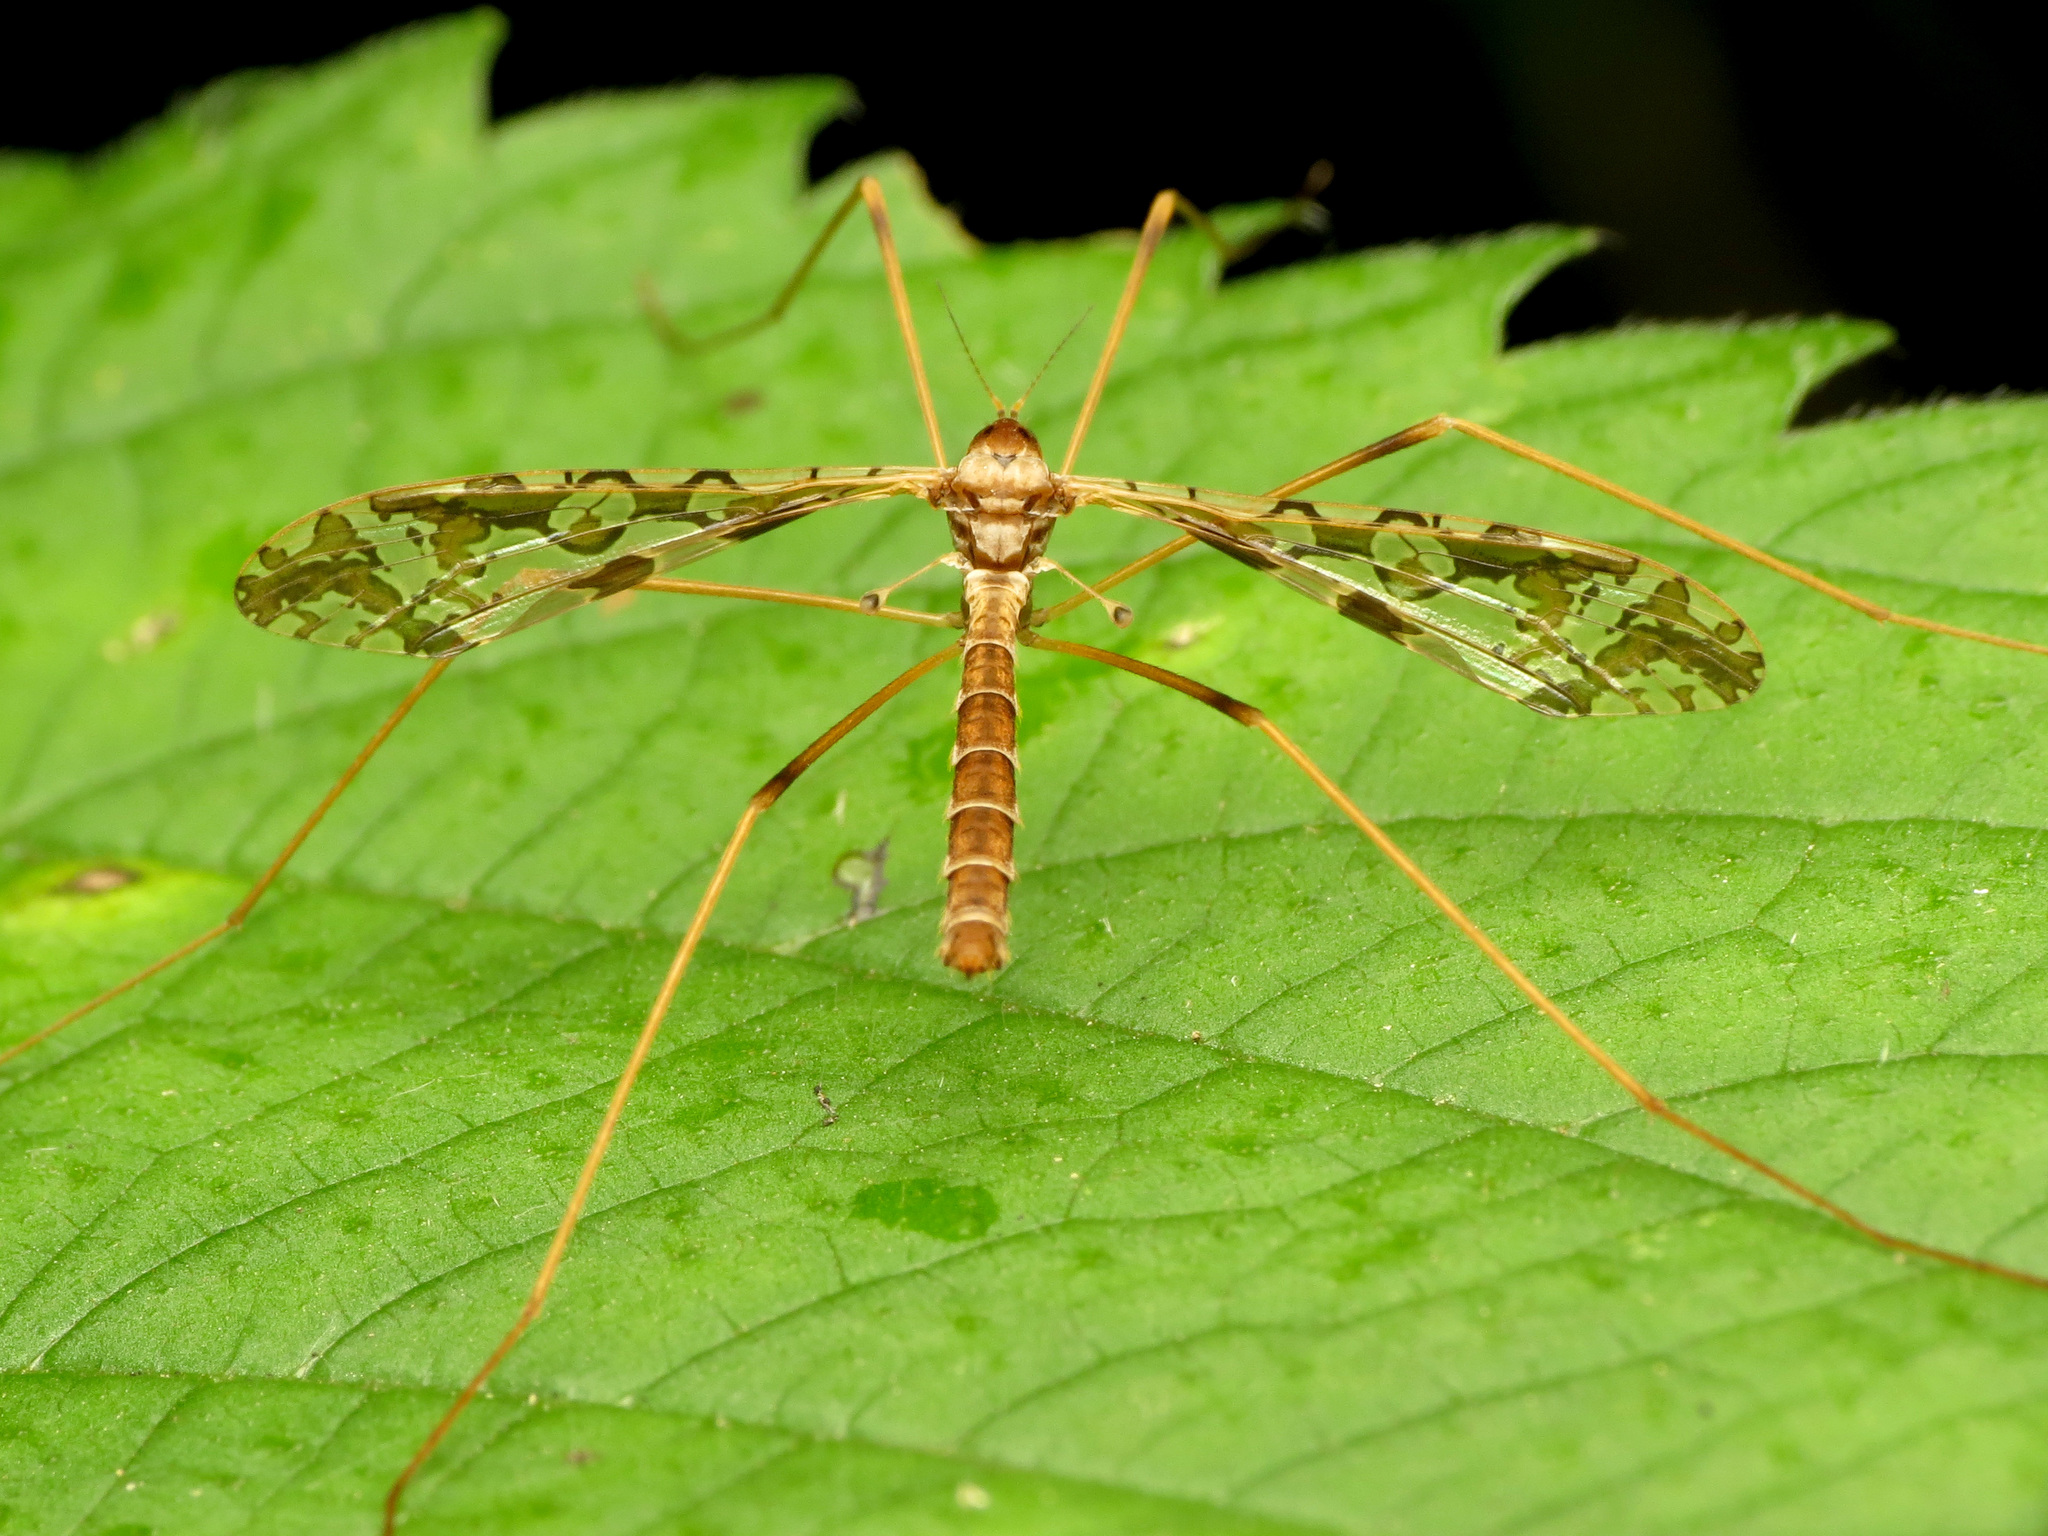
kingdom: Animalia
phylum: Arthropoda
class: Insecta
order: Diptera
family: Limoniidae
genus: Epiphragma
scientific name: Epiphragma solatrix
